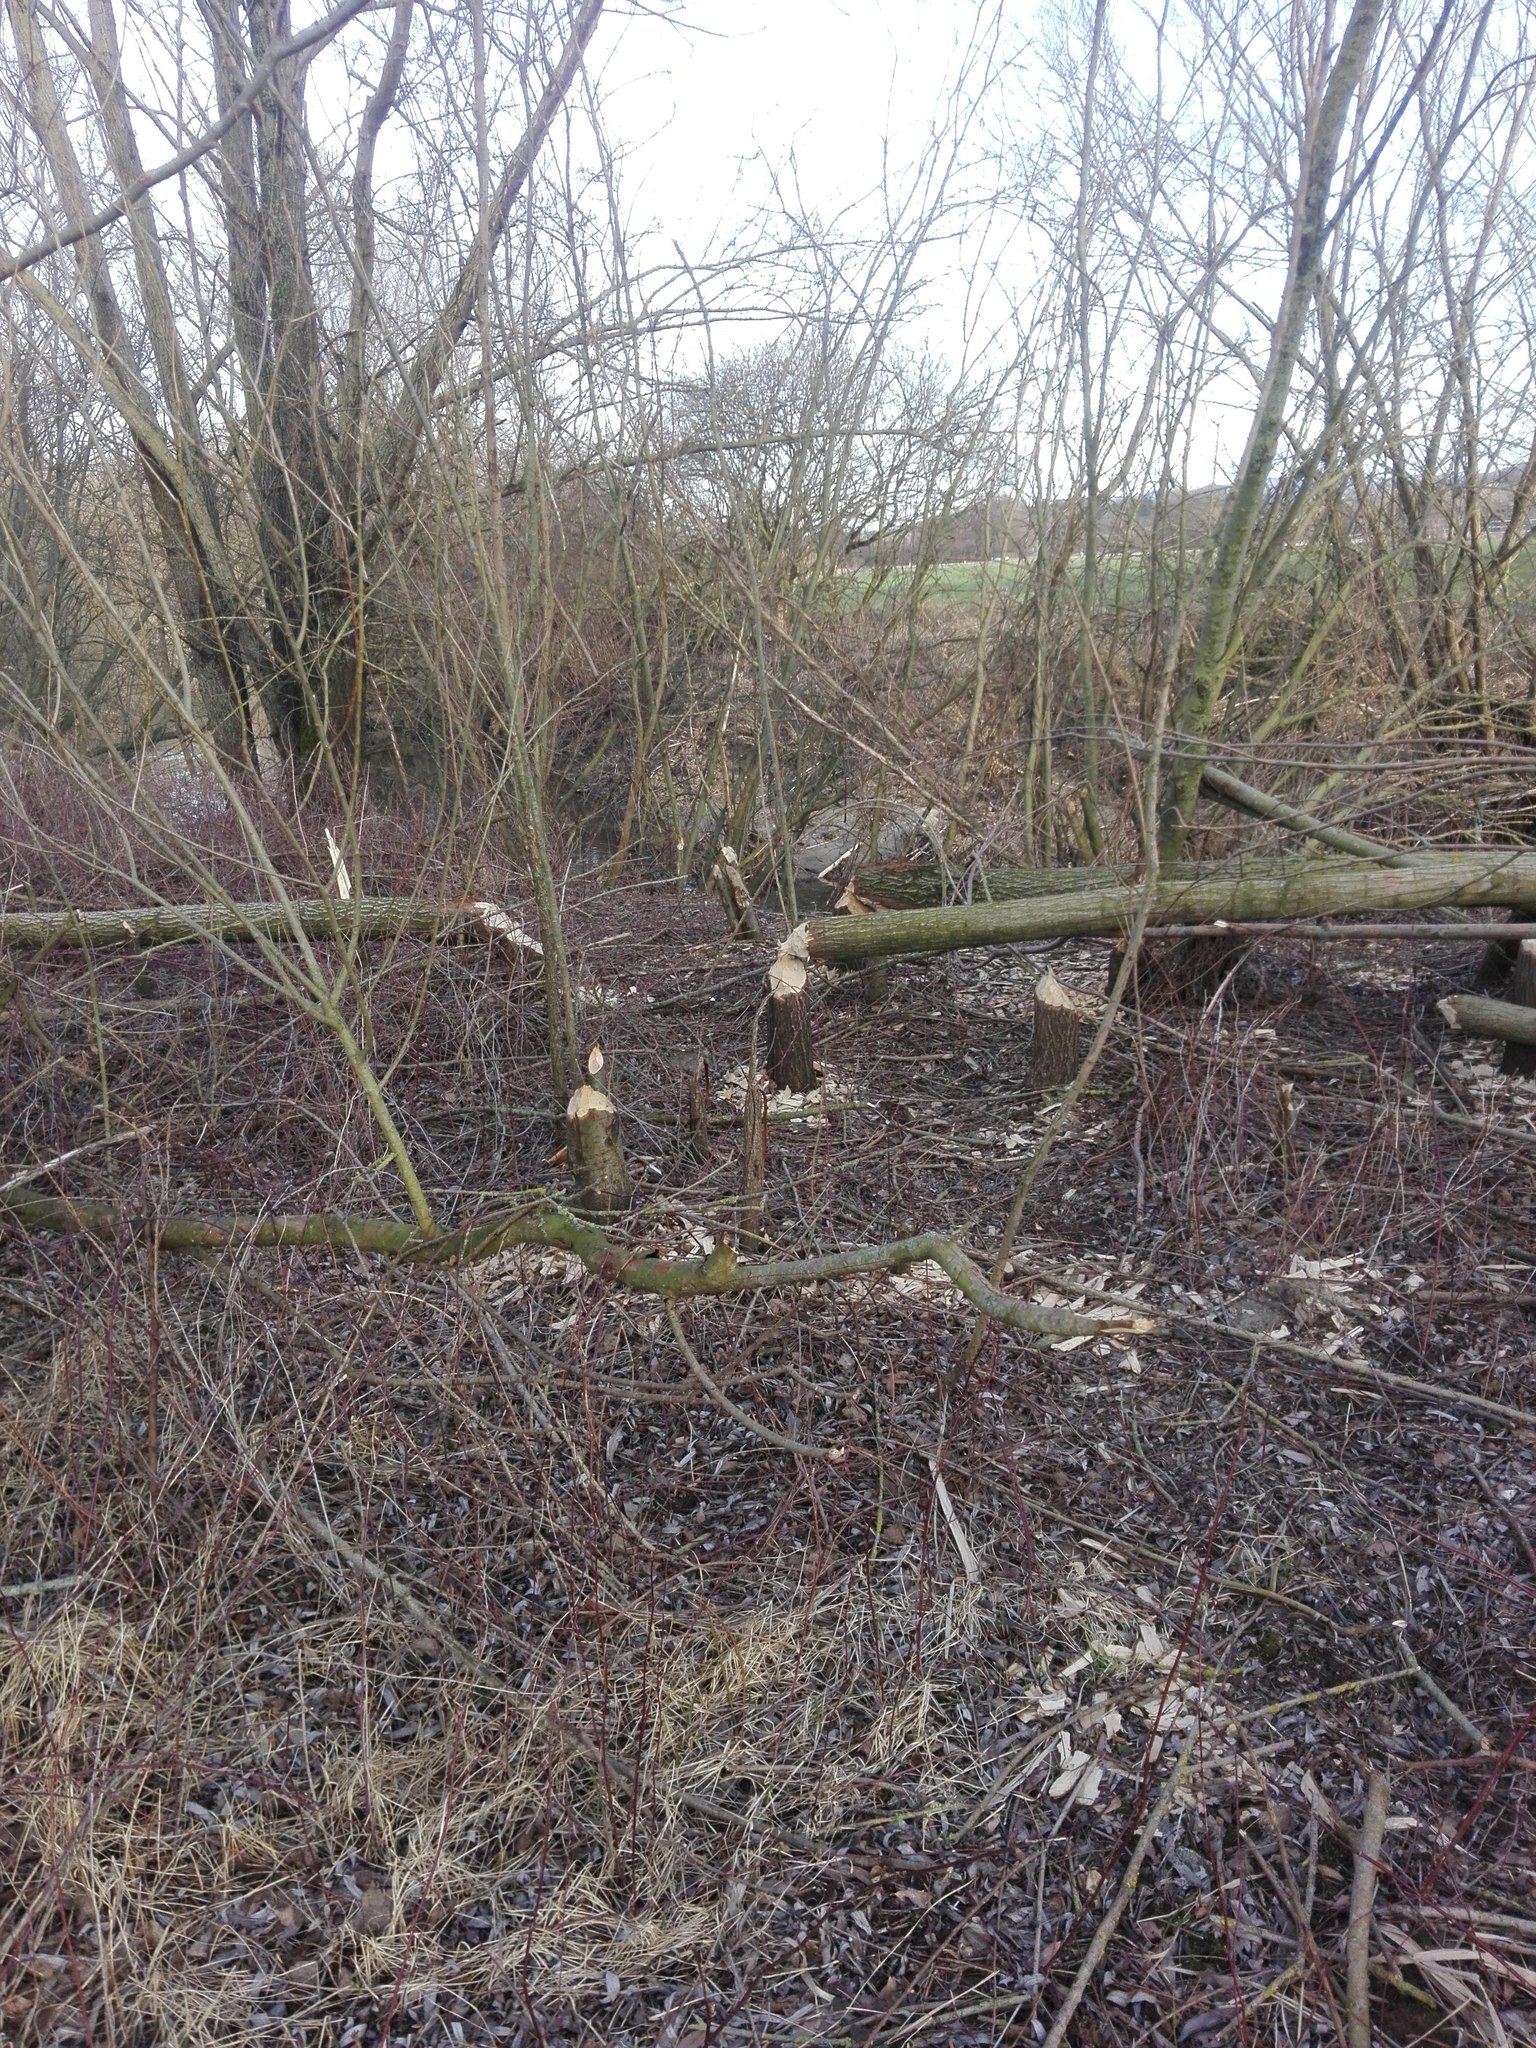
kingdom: Animalia
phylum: Chordata
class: Mammalia
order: Rodentia
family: Castoridae
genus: Castor
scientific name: Castor fiber
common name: Eurasian beaver
